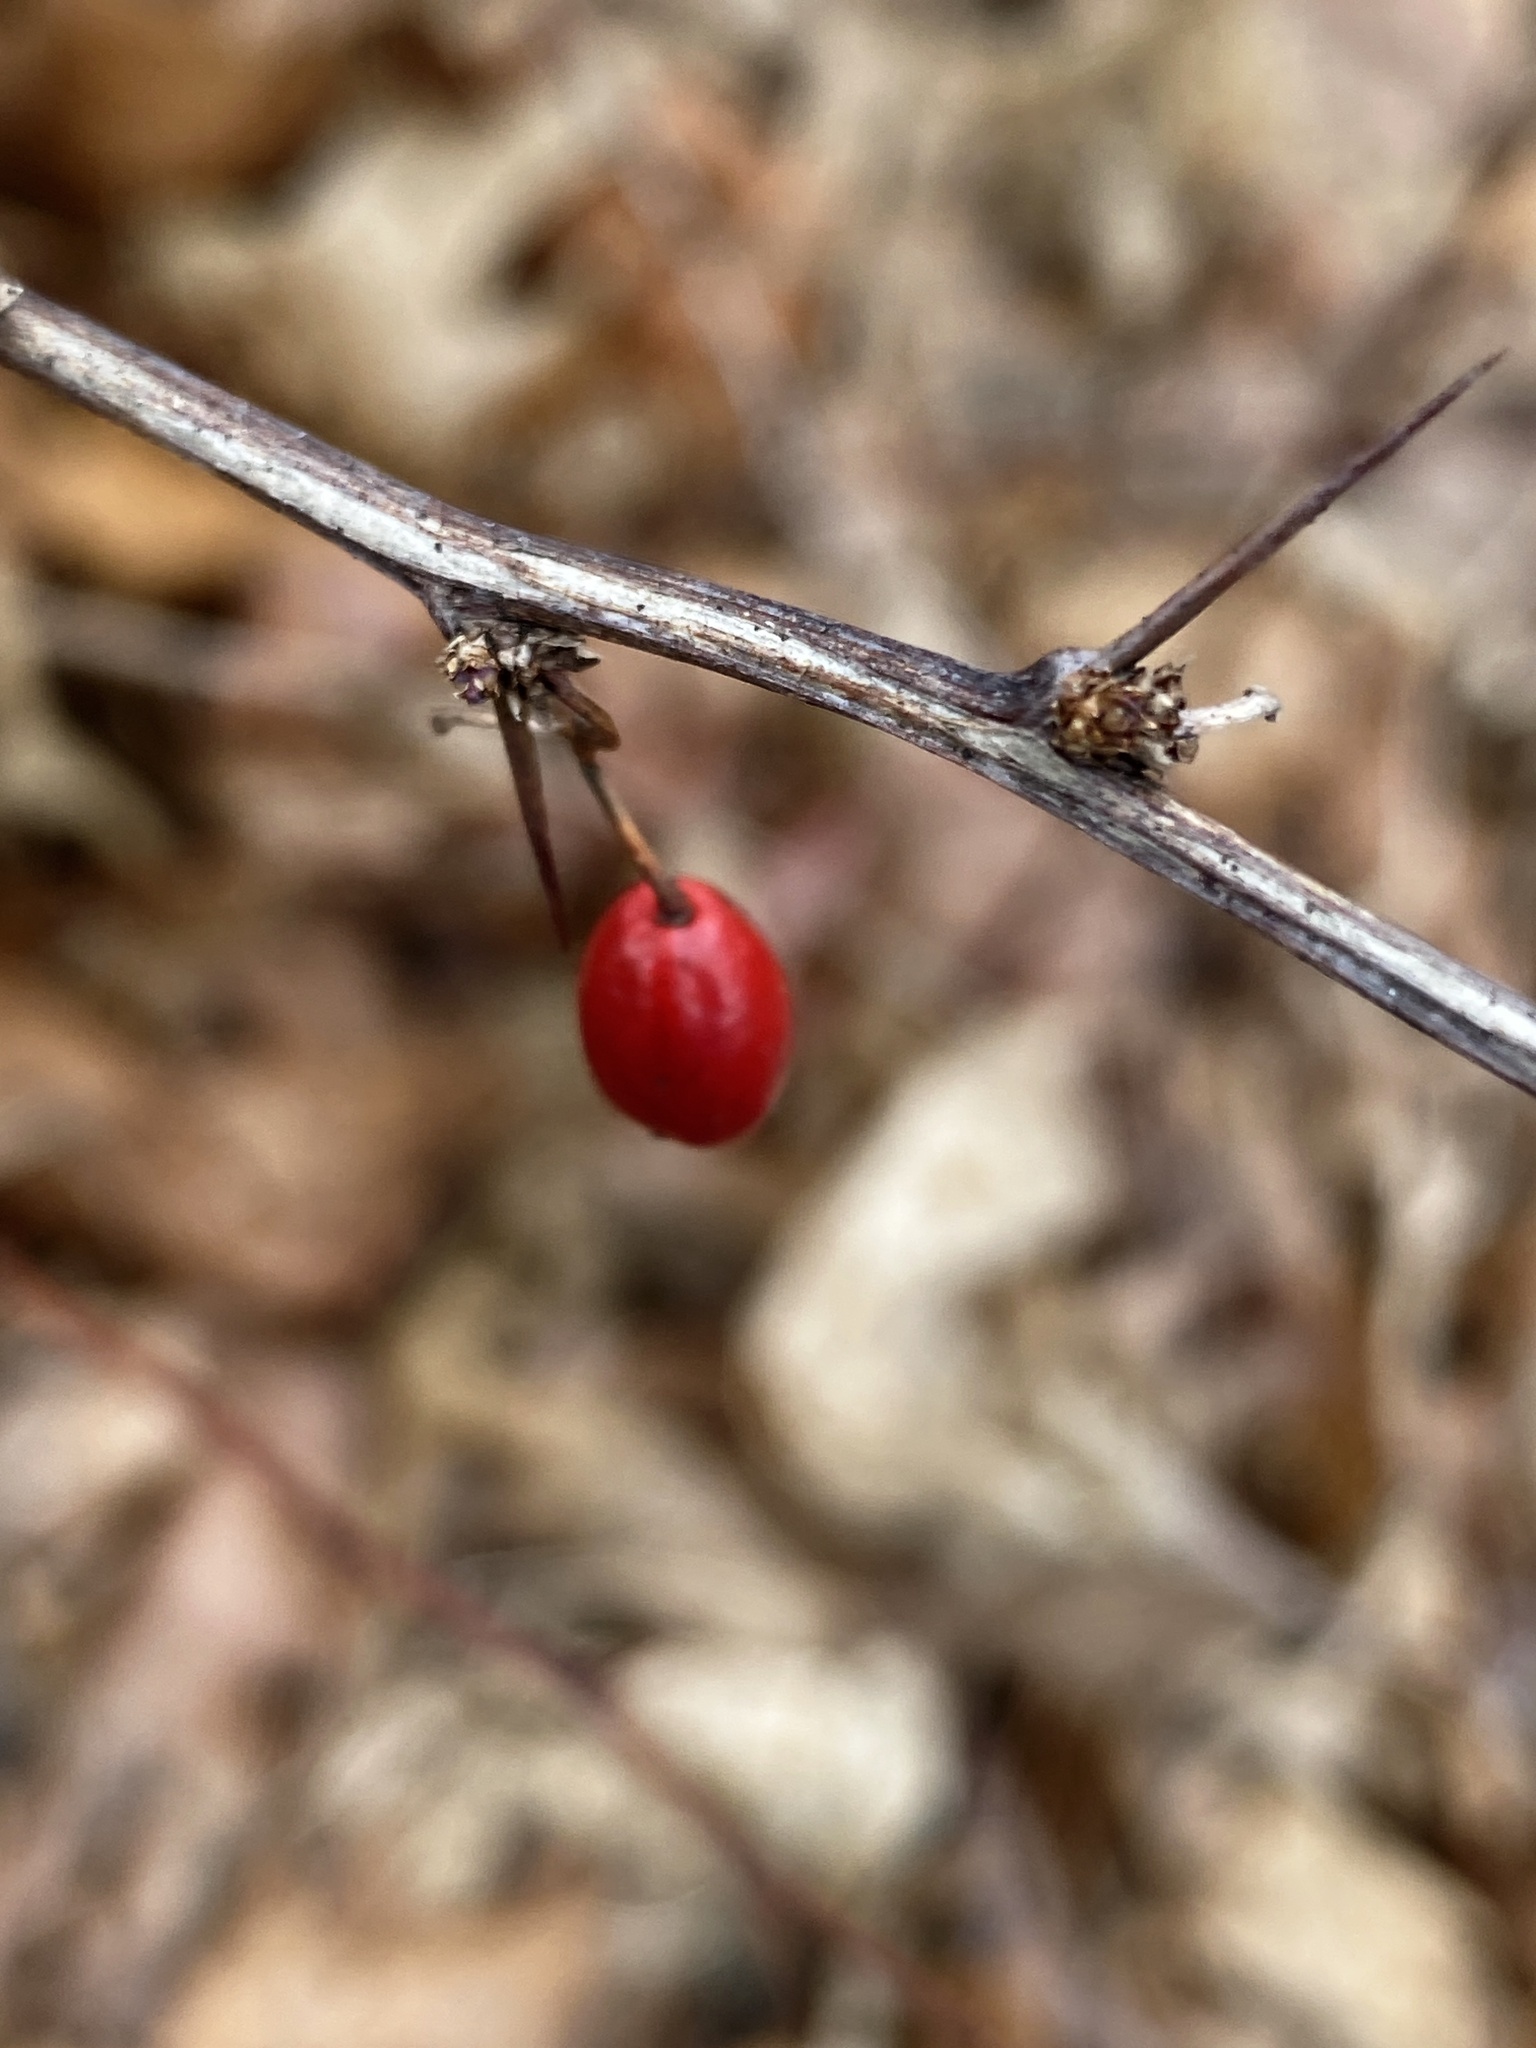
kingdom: Plantae
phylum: Tracheophyta
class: Magnoliopsida
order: Ranunculales
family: Berberidaceae
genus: Berberis
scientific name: Berberis thunbergii
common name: Japanese barberry
